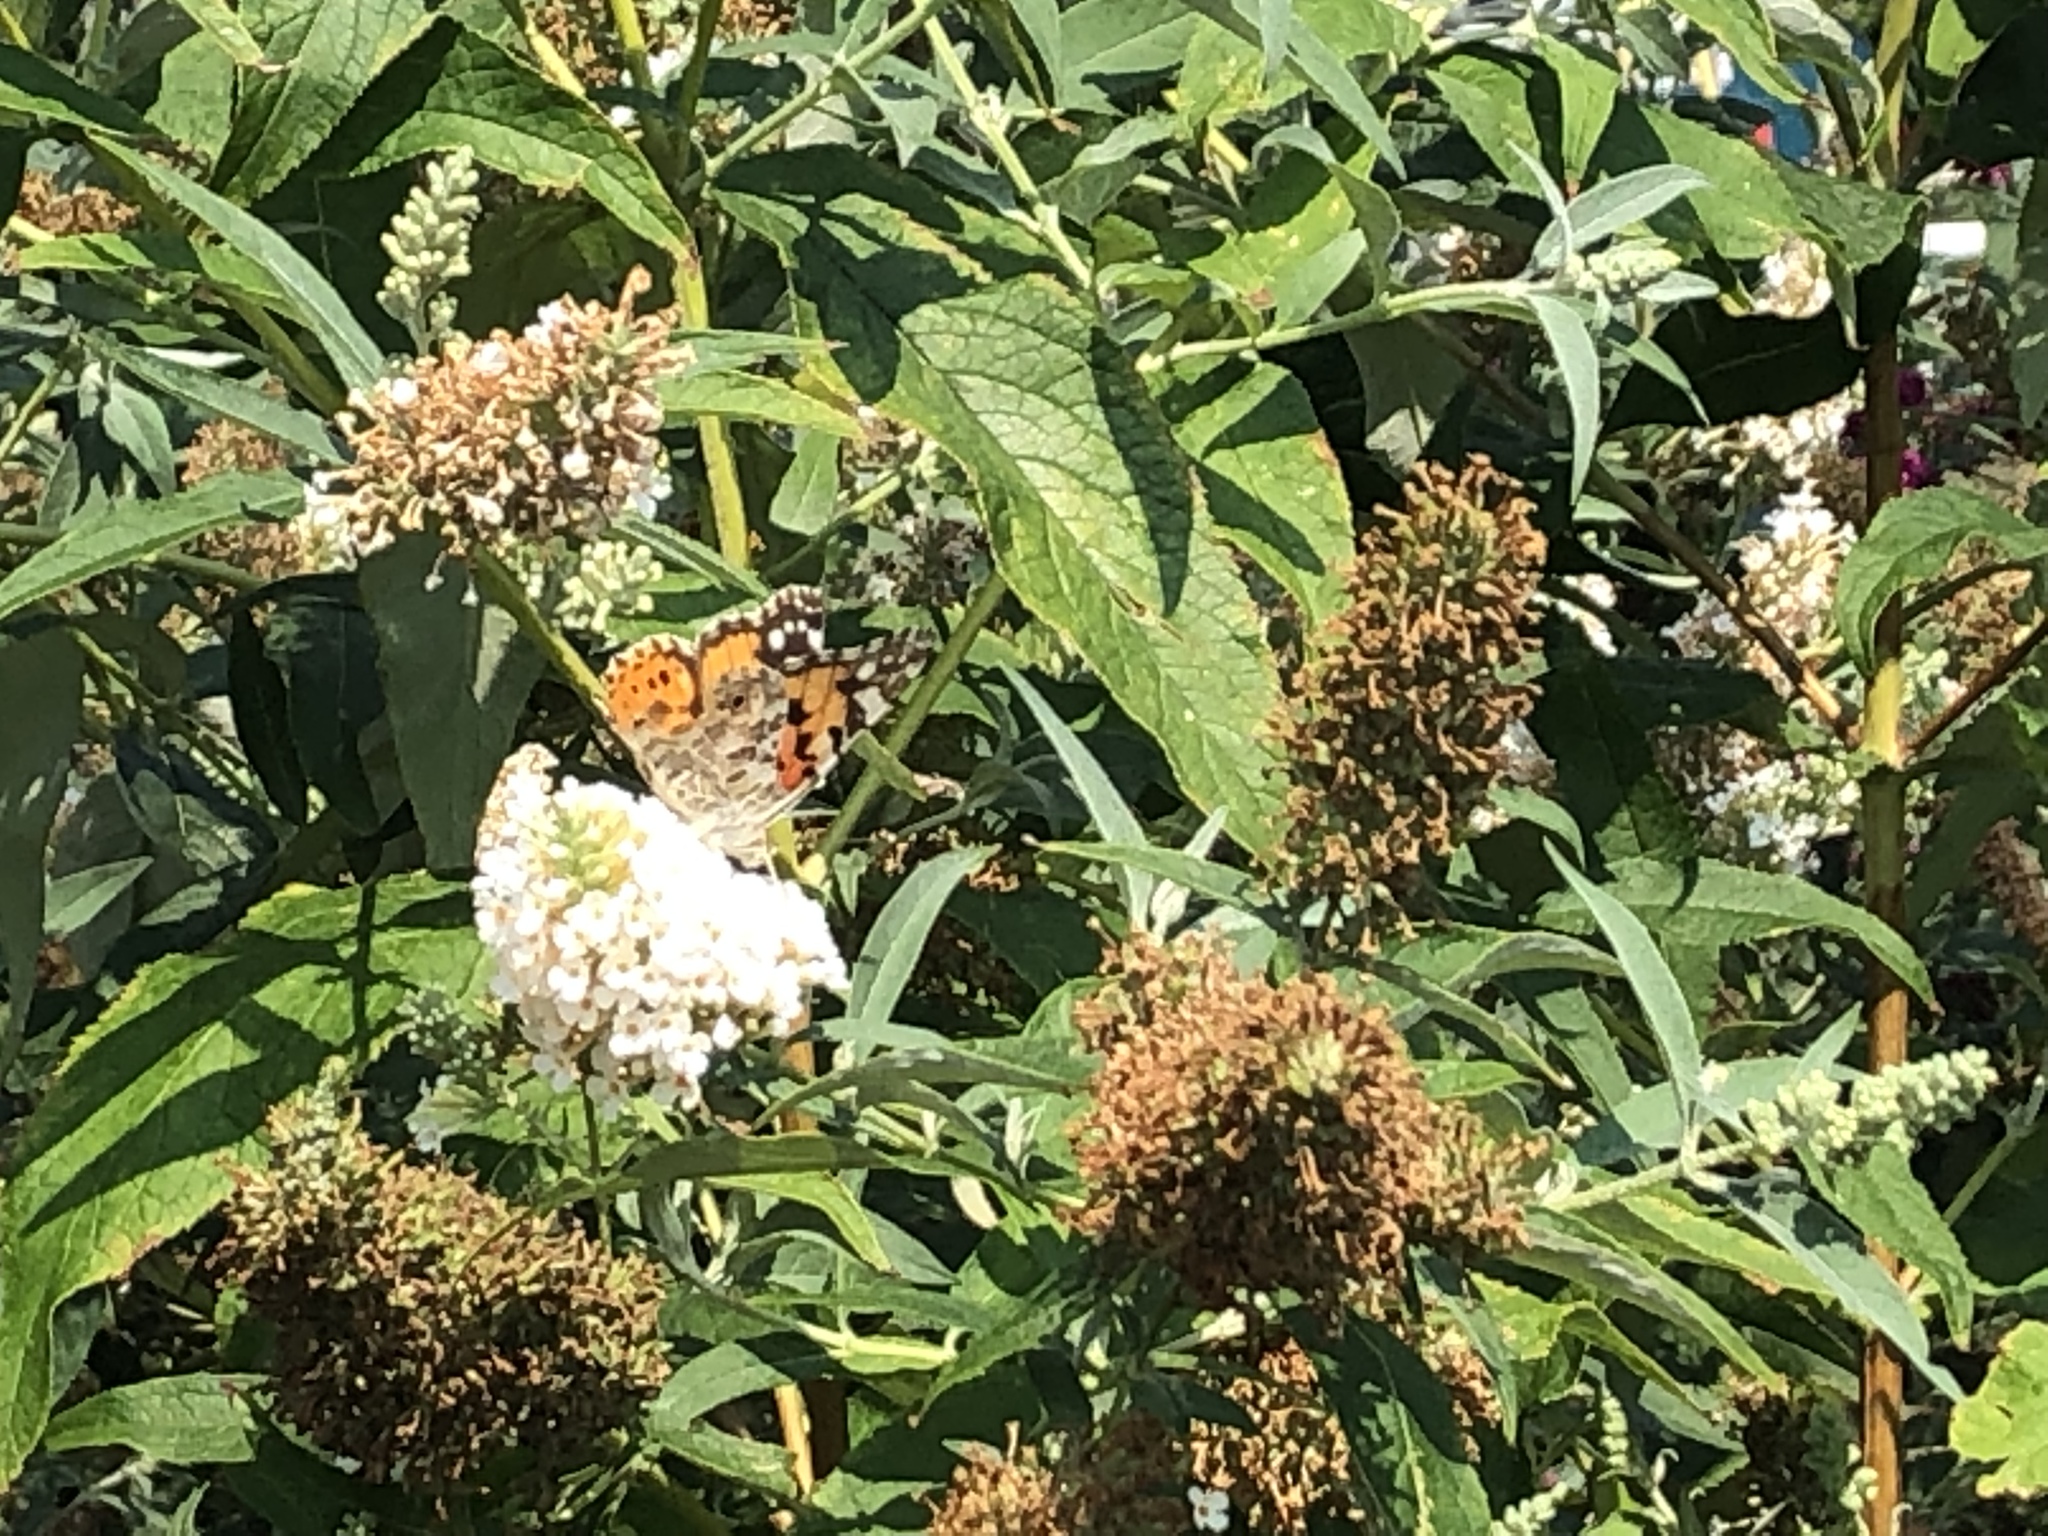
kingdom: Animalia
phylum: Arthropoda
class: Insecta
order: Lepidoptera
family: Nymphalidae
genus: Vanessa
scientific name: Vanessa cardui
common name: Painted lady
